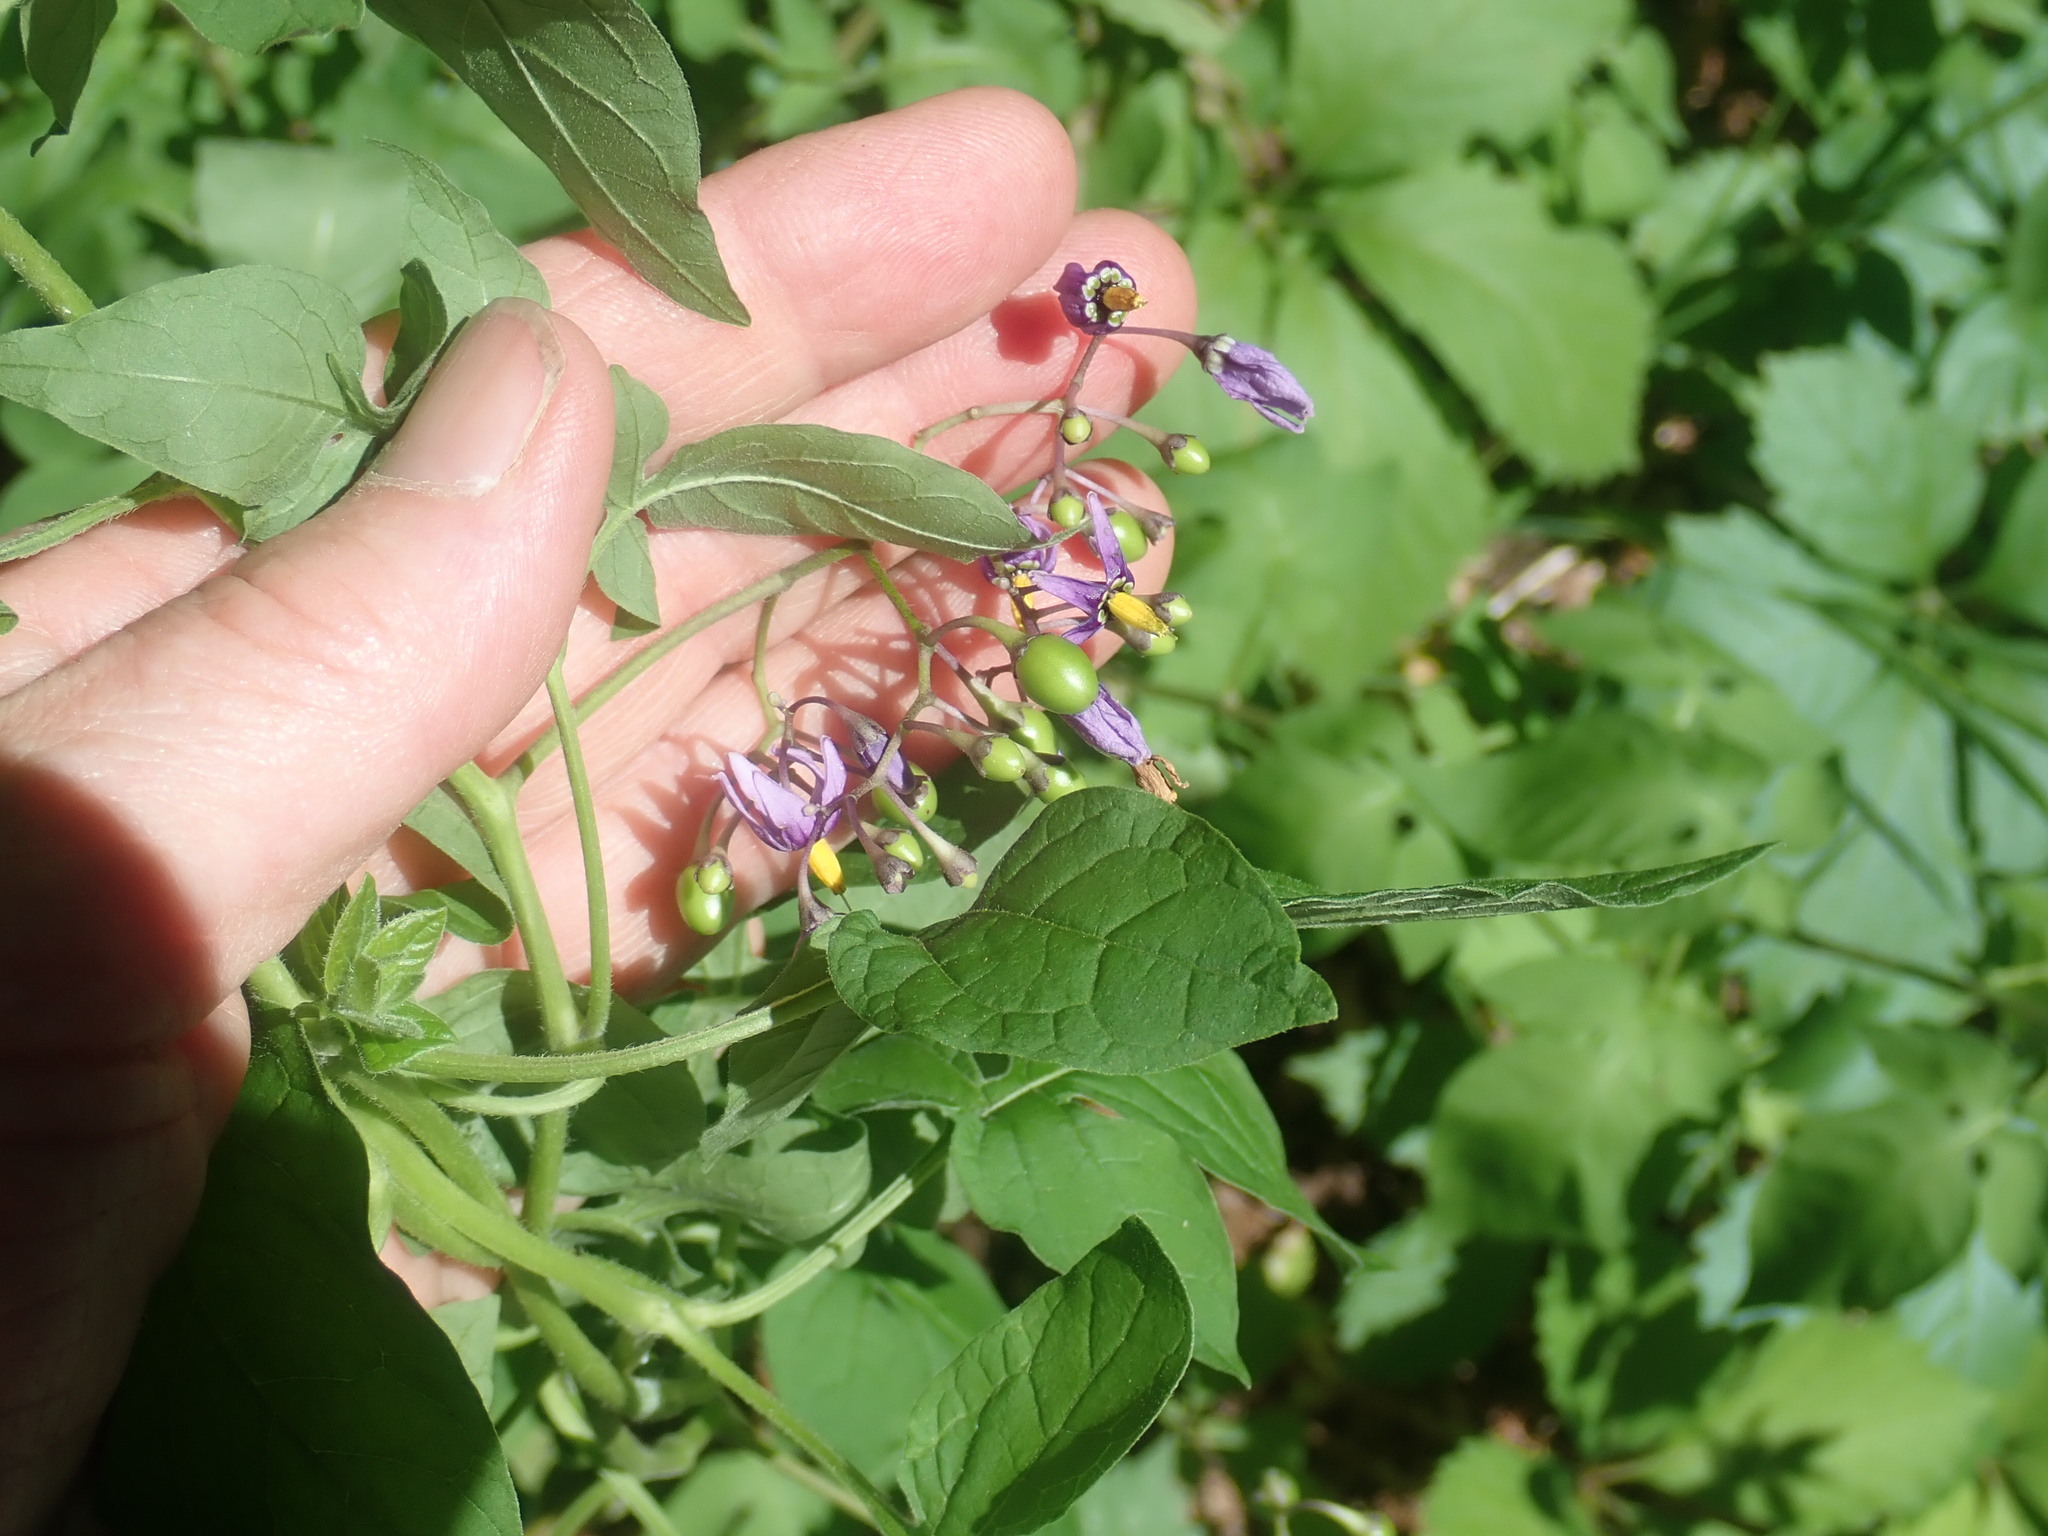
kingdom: Plantae
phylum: Tracheophyta
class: Magnoliopsida
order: Solanales
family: Solanaceae
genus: Solanum
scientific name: Solanum dulcamara
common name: Climbing nightshade
